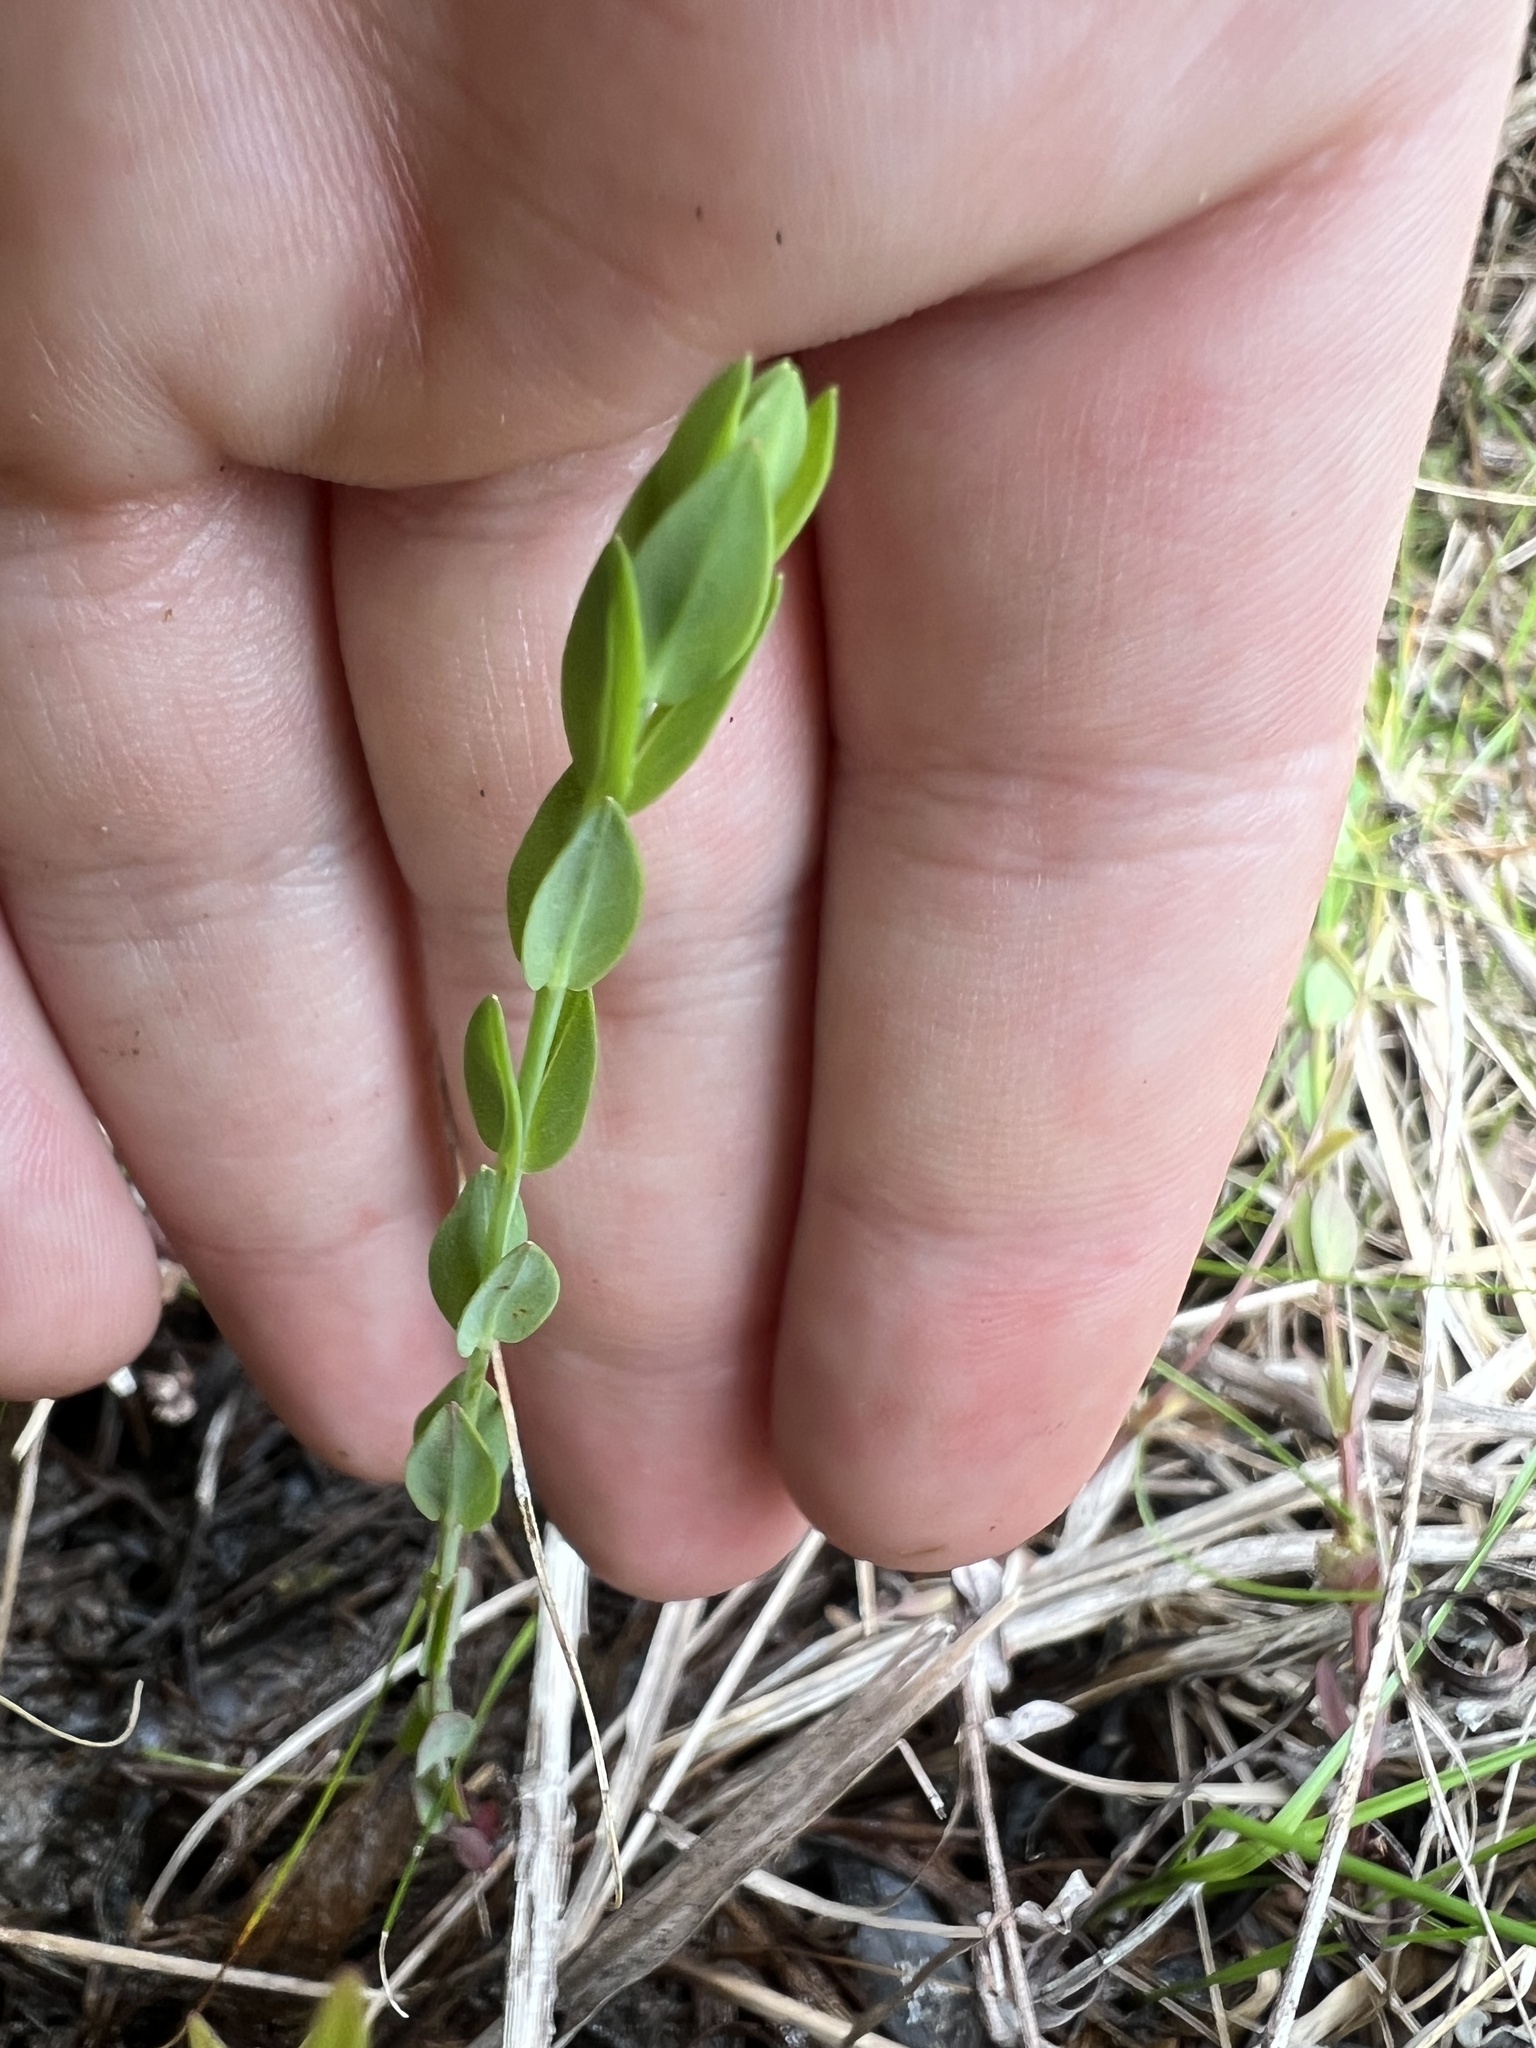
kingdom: Plantae
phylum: Tracheophyta
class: Magnoliopsida
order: Malpighiales
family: Hypericaceae
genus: Hypericum
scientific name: Hypericum denticulatum
